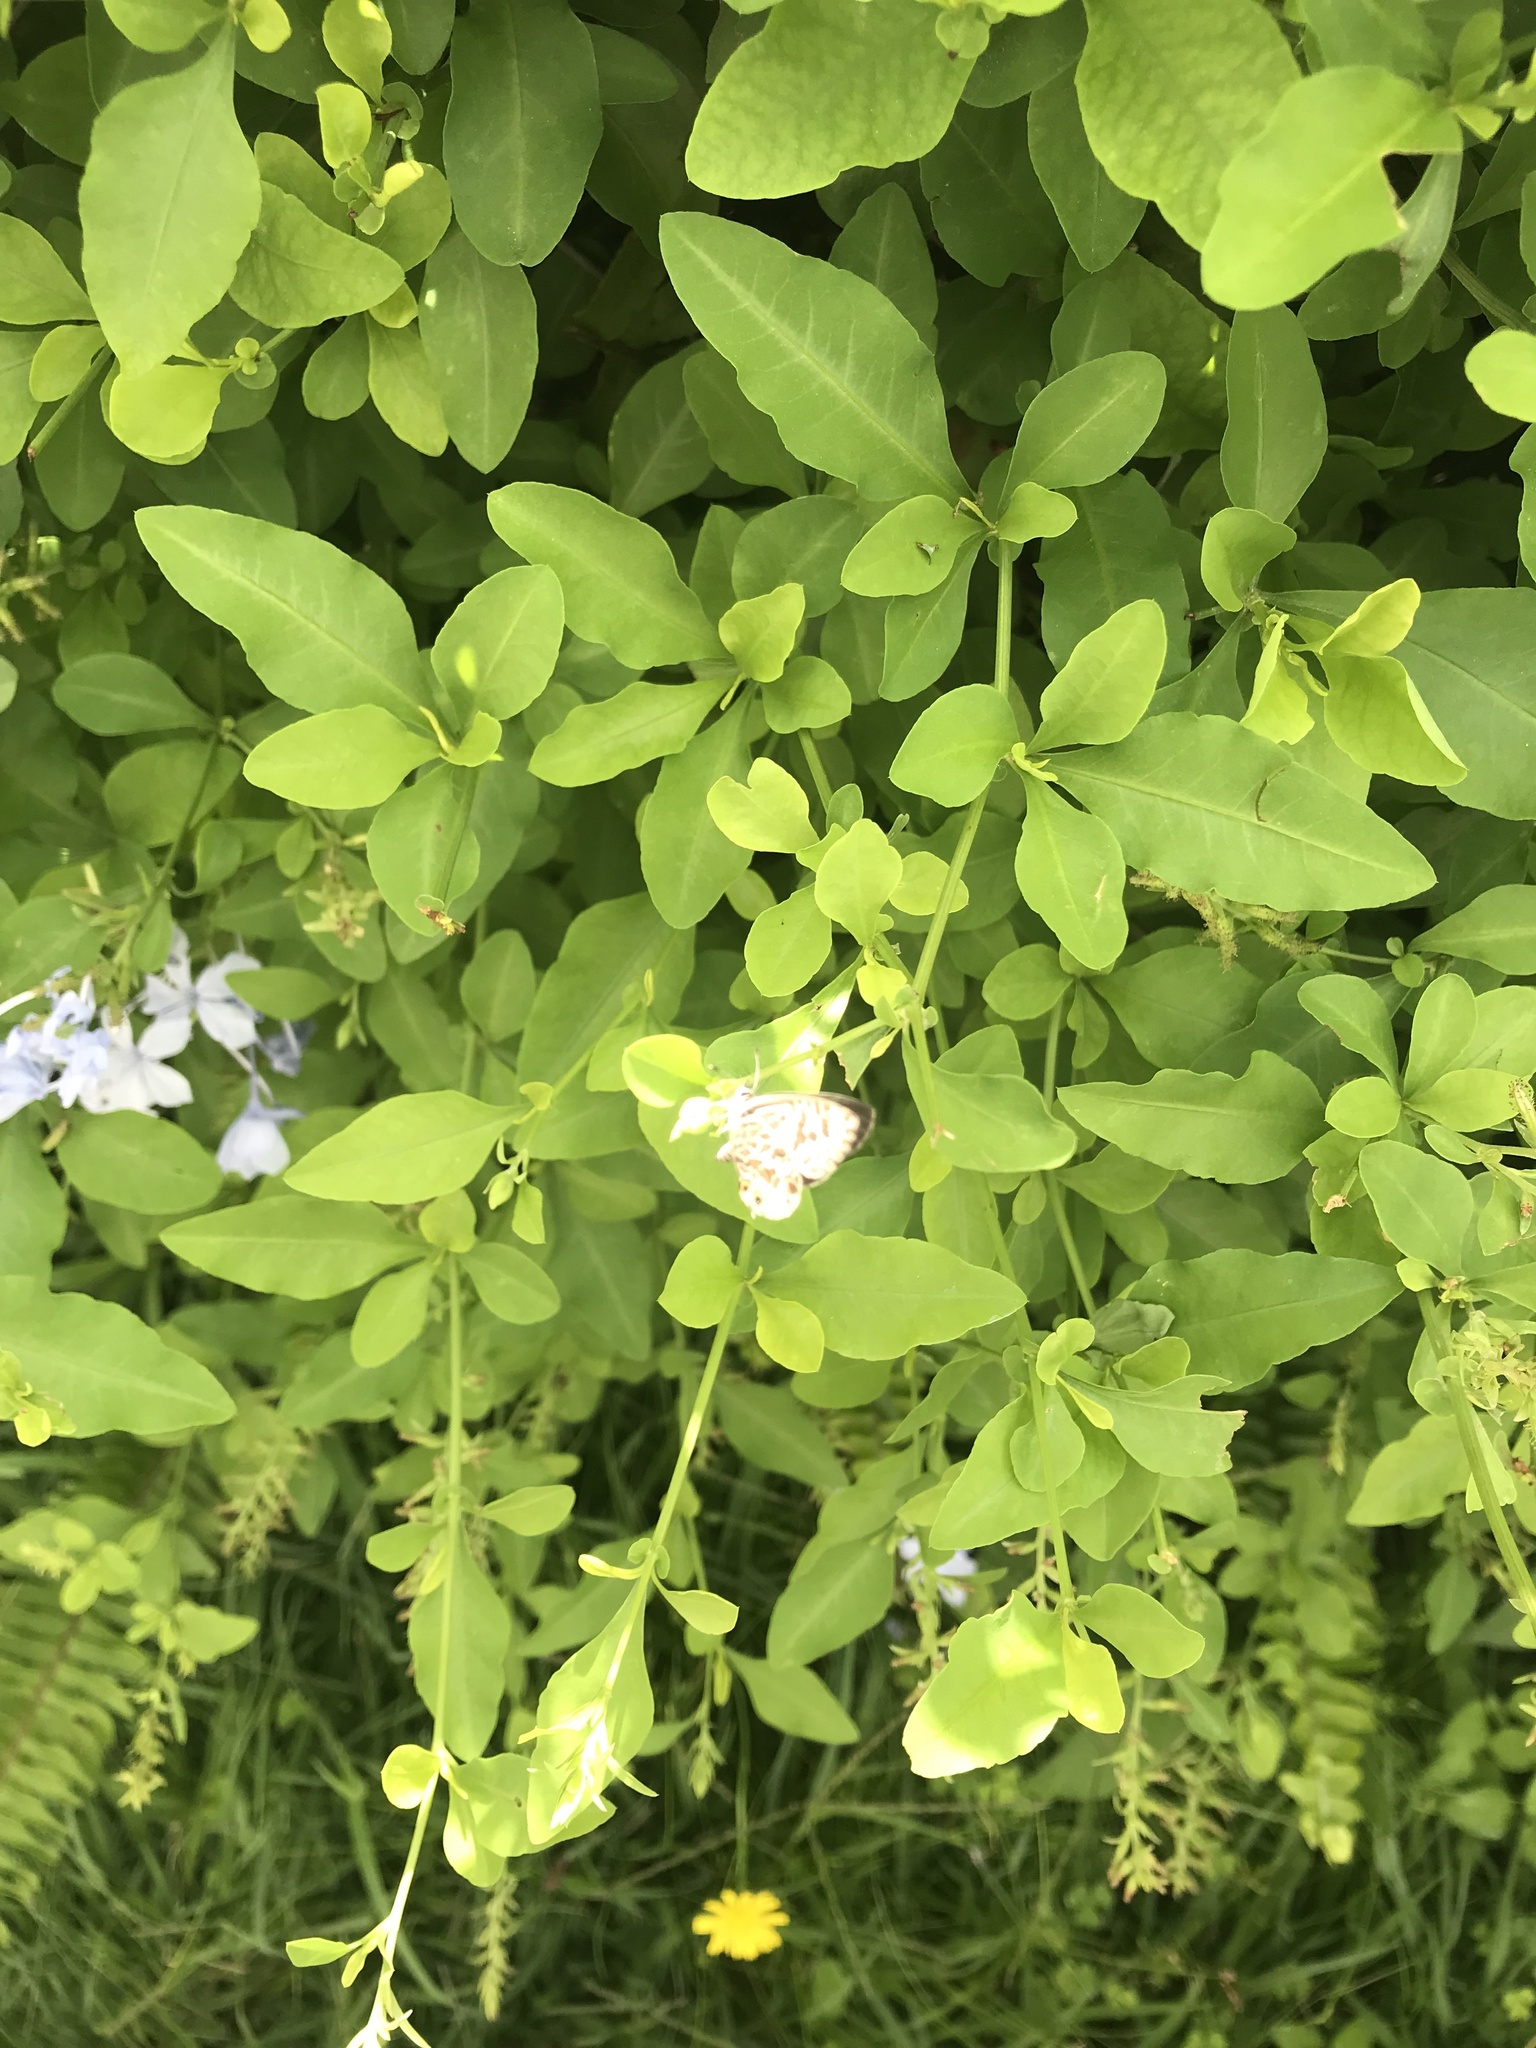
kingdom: Animalia
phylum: Arthropoda
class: Insecta
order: Lepidoptera
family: Lycaenidae
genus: Leptotes
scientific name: Leptotes plinius
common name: Zebra blue
